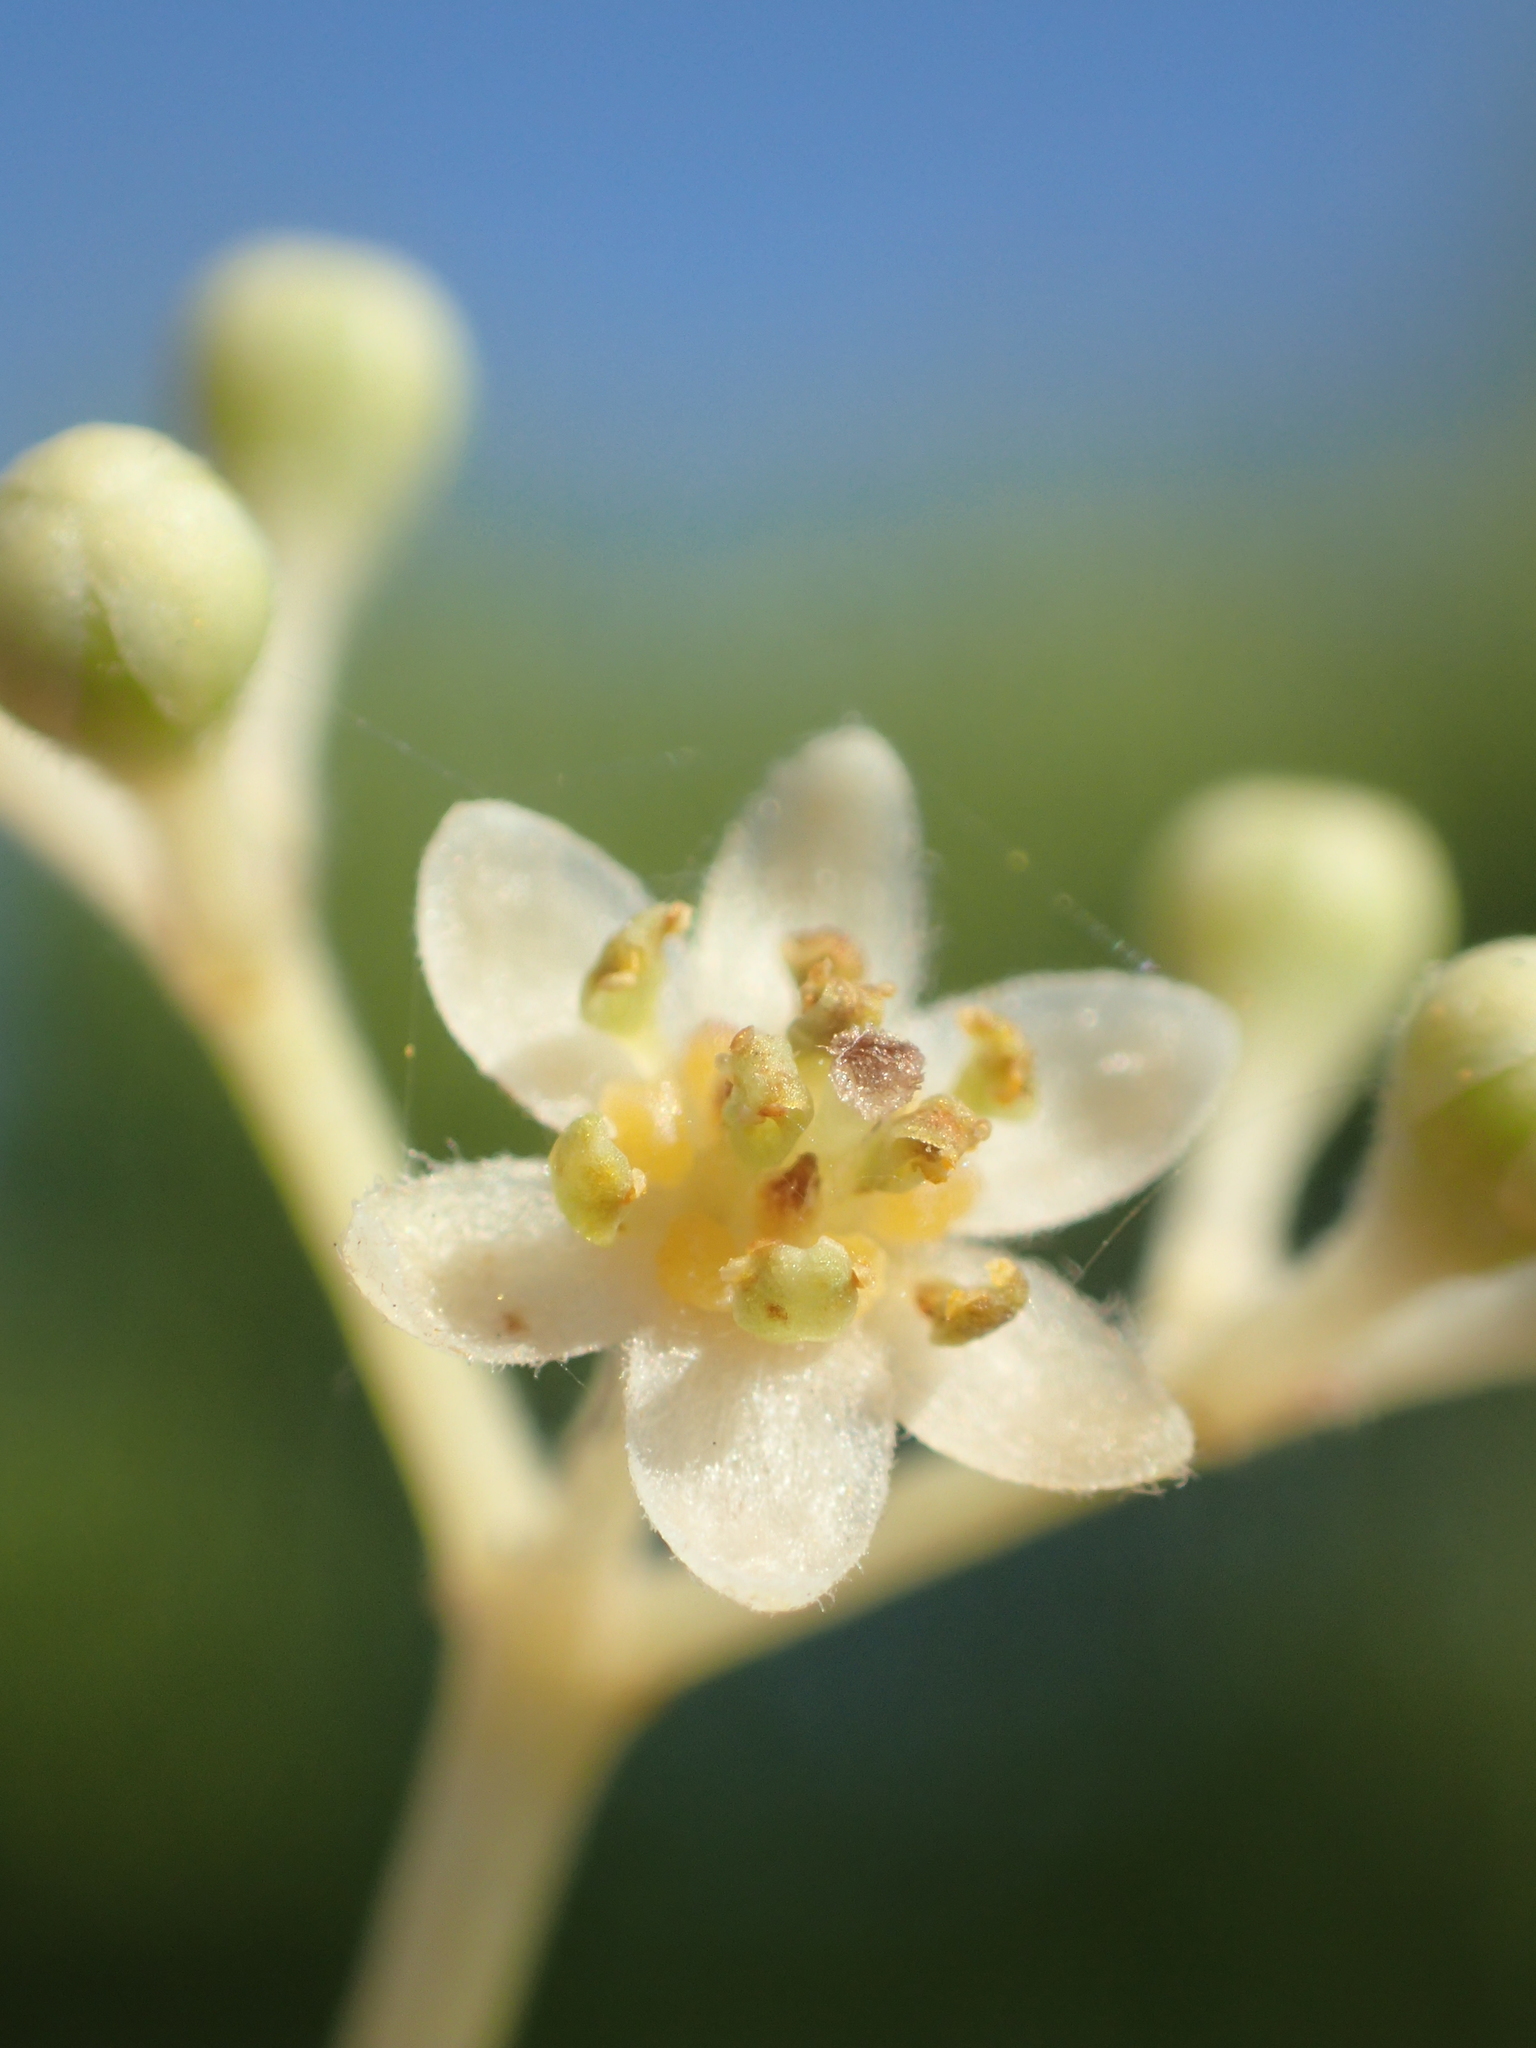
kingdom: Plantae
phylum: Tracheophyta
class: Magnoliopsida
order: Laurales
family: Lauraceae
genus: Cinnamomum
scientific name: Cinnamomum camphora
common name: Camphortree
